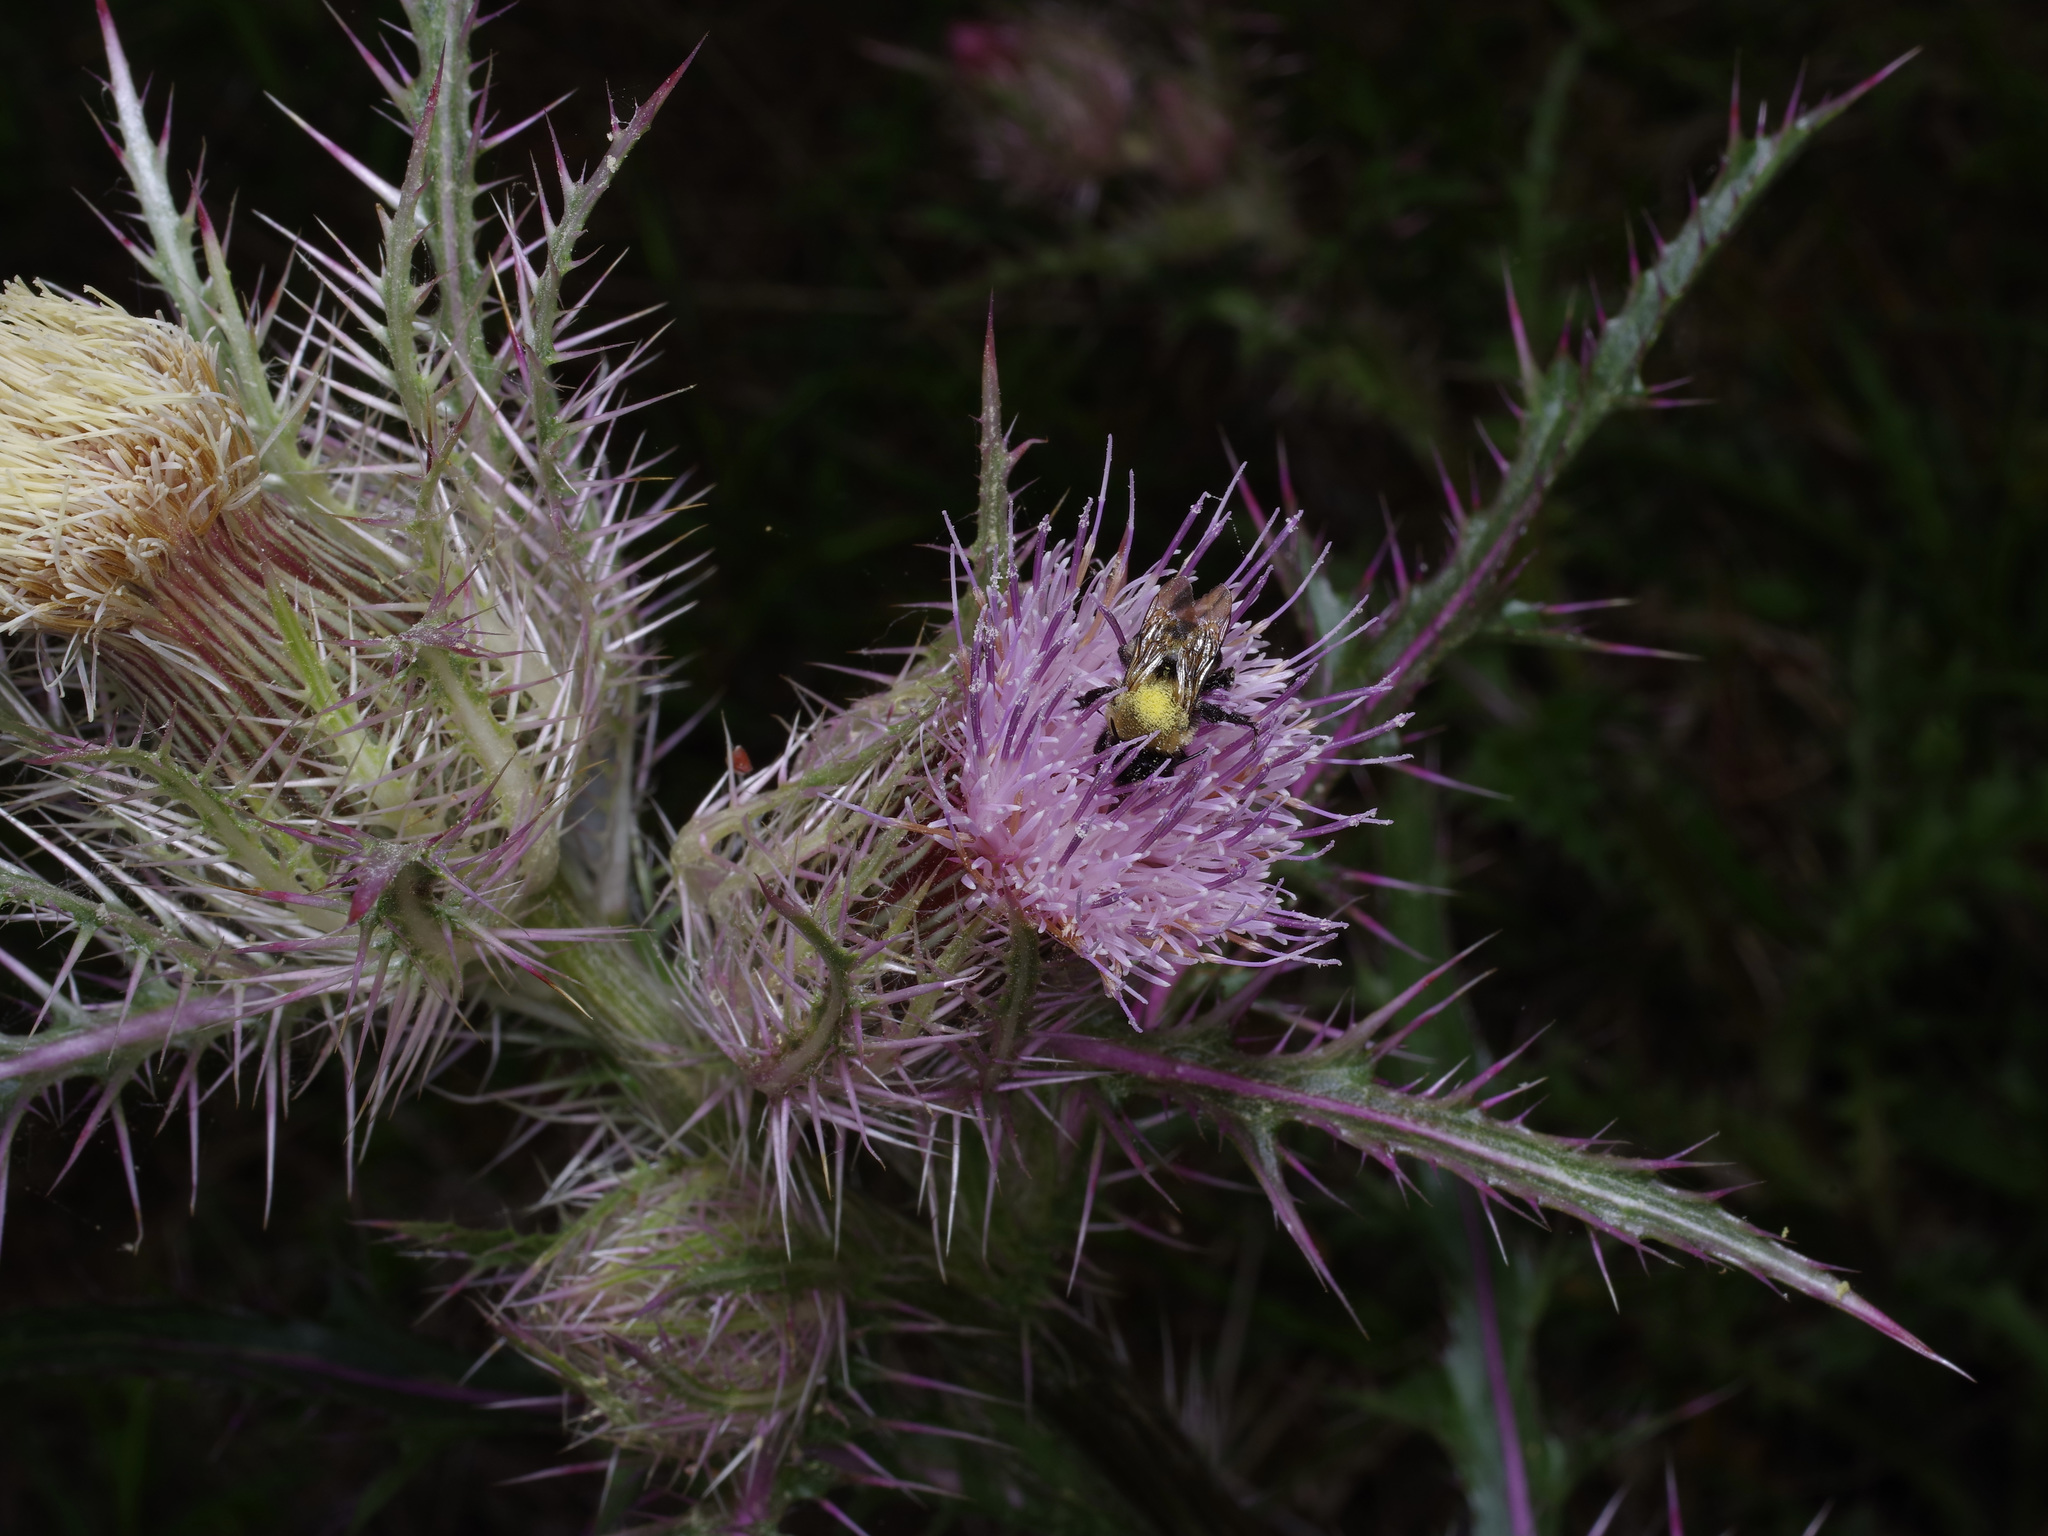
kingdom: Animalia
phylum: Arthropoda
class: Insecta
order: Hymenoptera
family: Apidae
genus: Bombus
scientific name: Bombus impatiens
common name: Common eastern bumble bee
